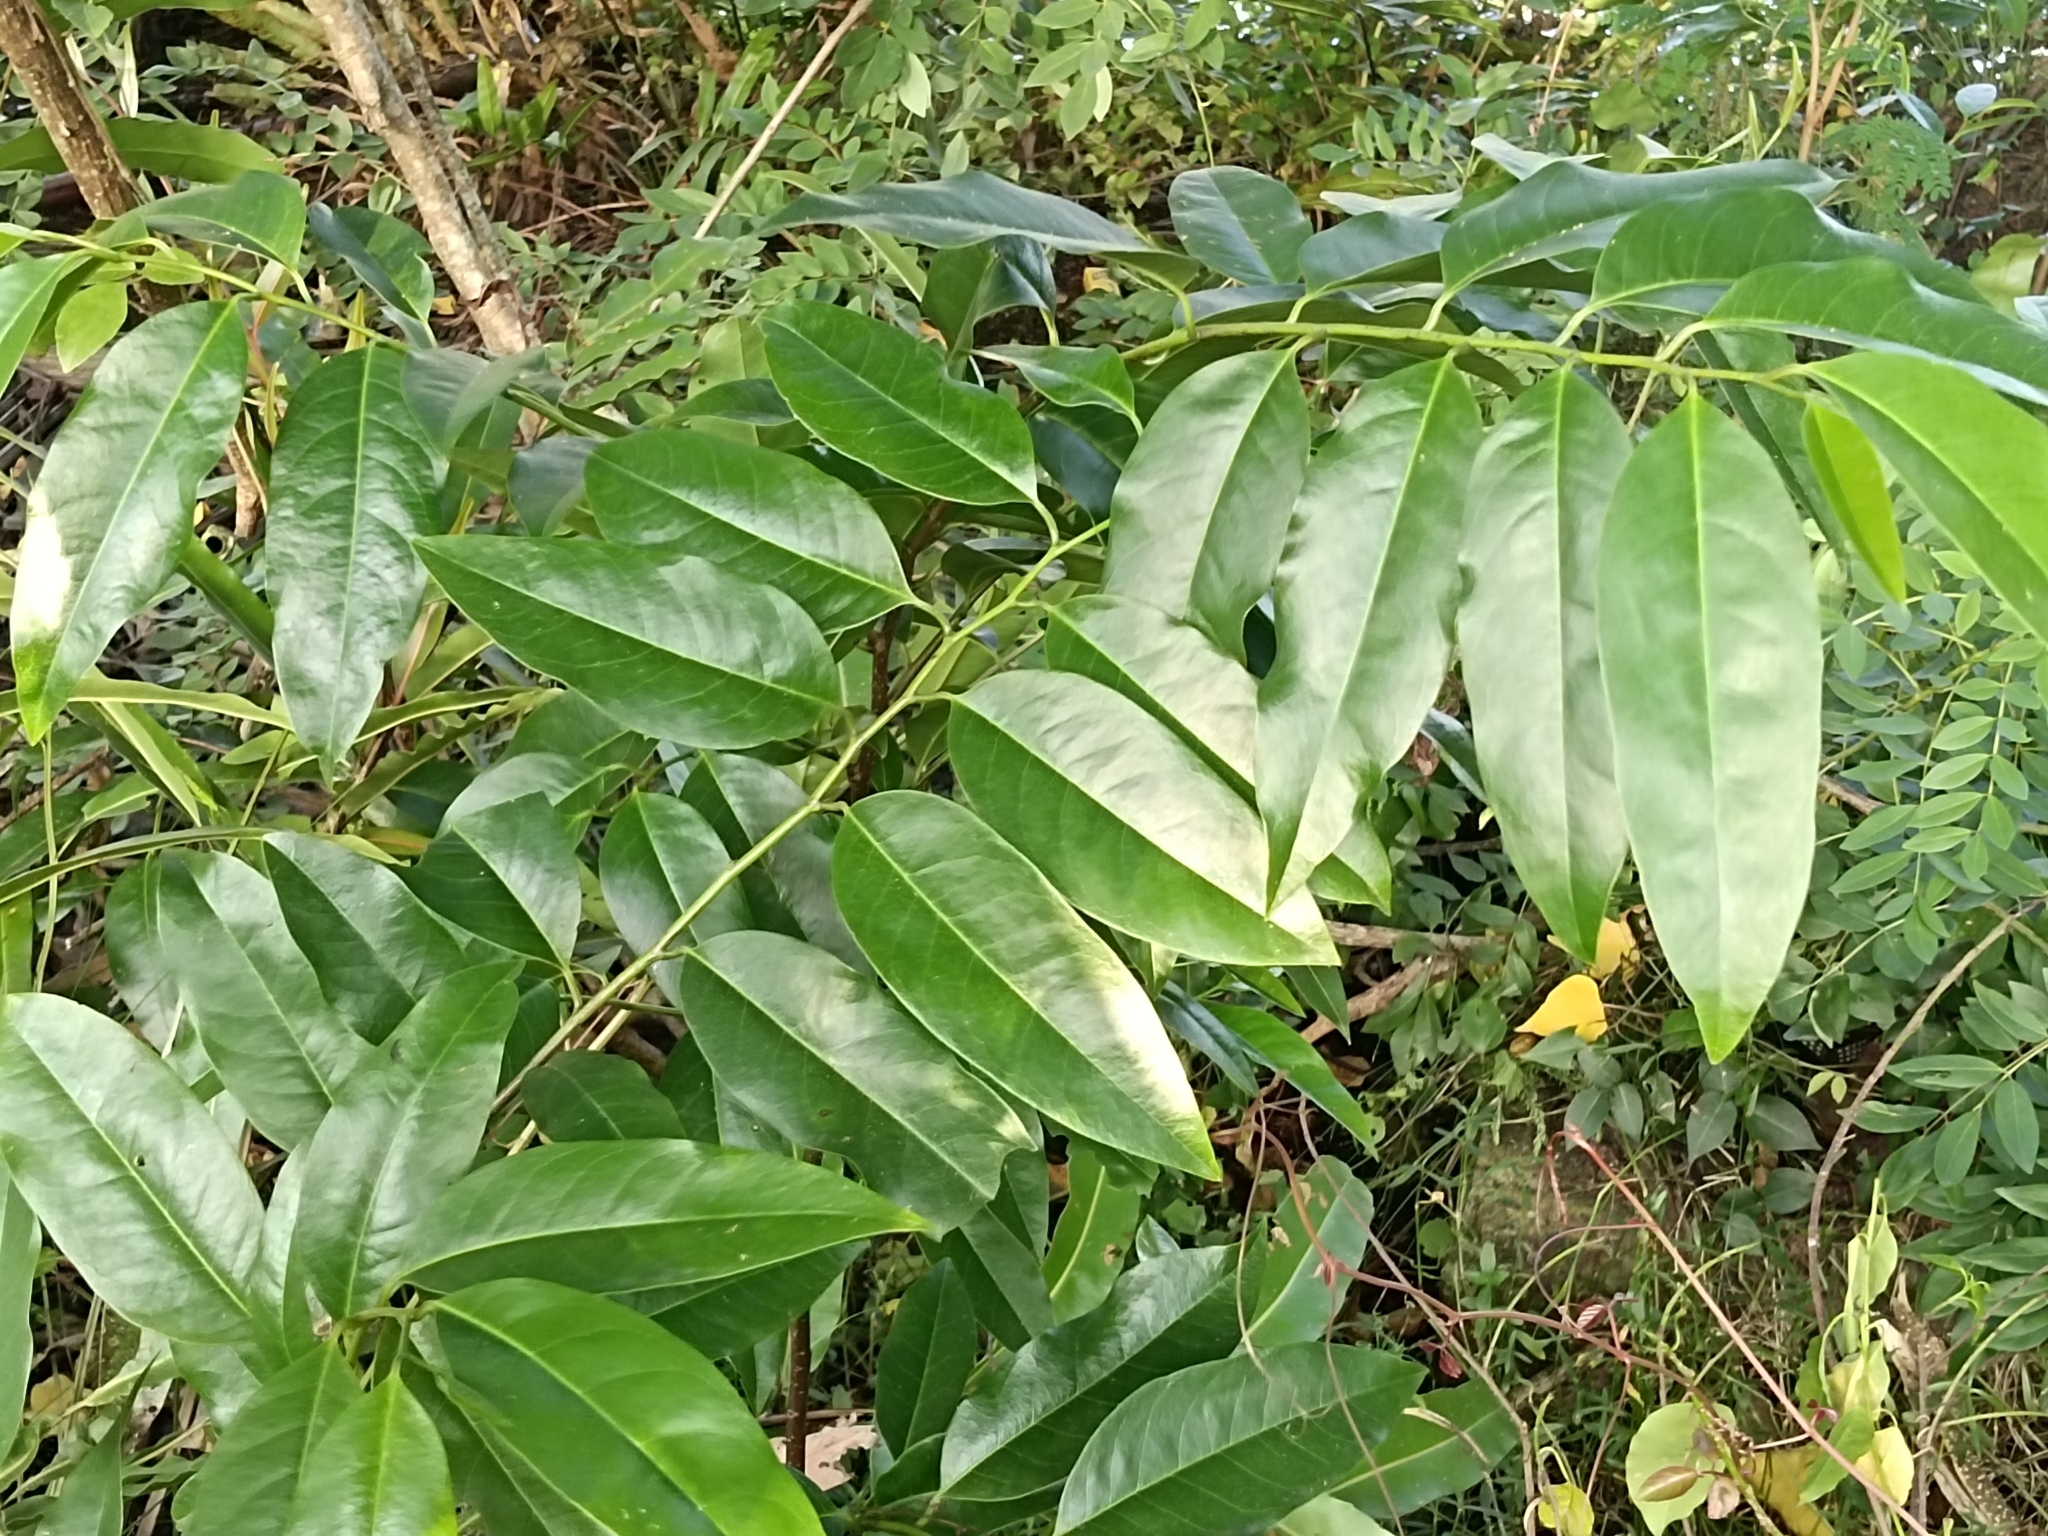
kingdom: Plantae
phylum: Tracheophyta
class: Magnoliopsida
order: Magnoliales
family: Annonaceae
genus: Annona
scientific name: Annona glabra
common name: Monkey apple
